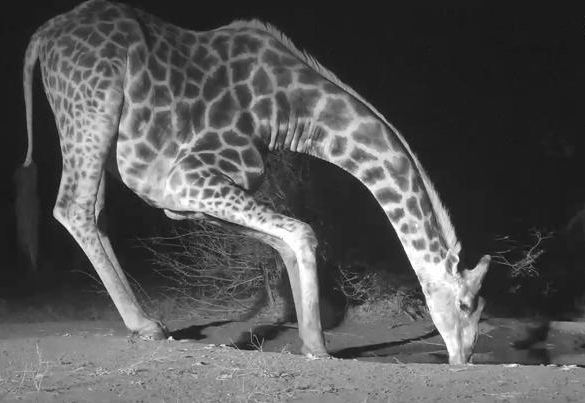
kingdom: Animalia
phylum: Chordata
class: Mammalia
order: Artiodactyla
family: Giraffidae
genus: Giraffa
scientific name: Giraffa giraffa
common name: Southern giraffe
